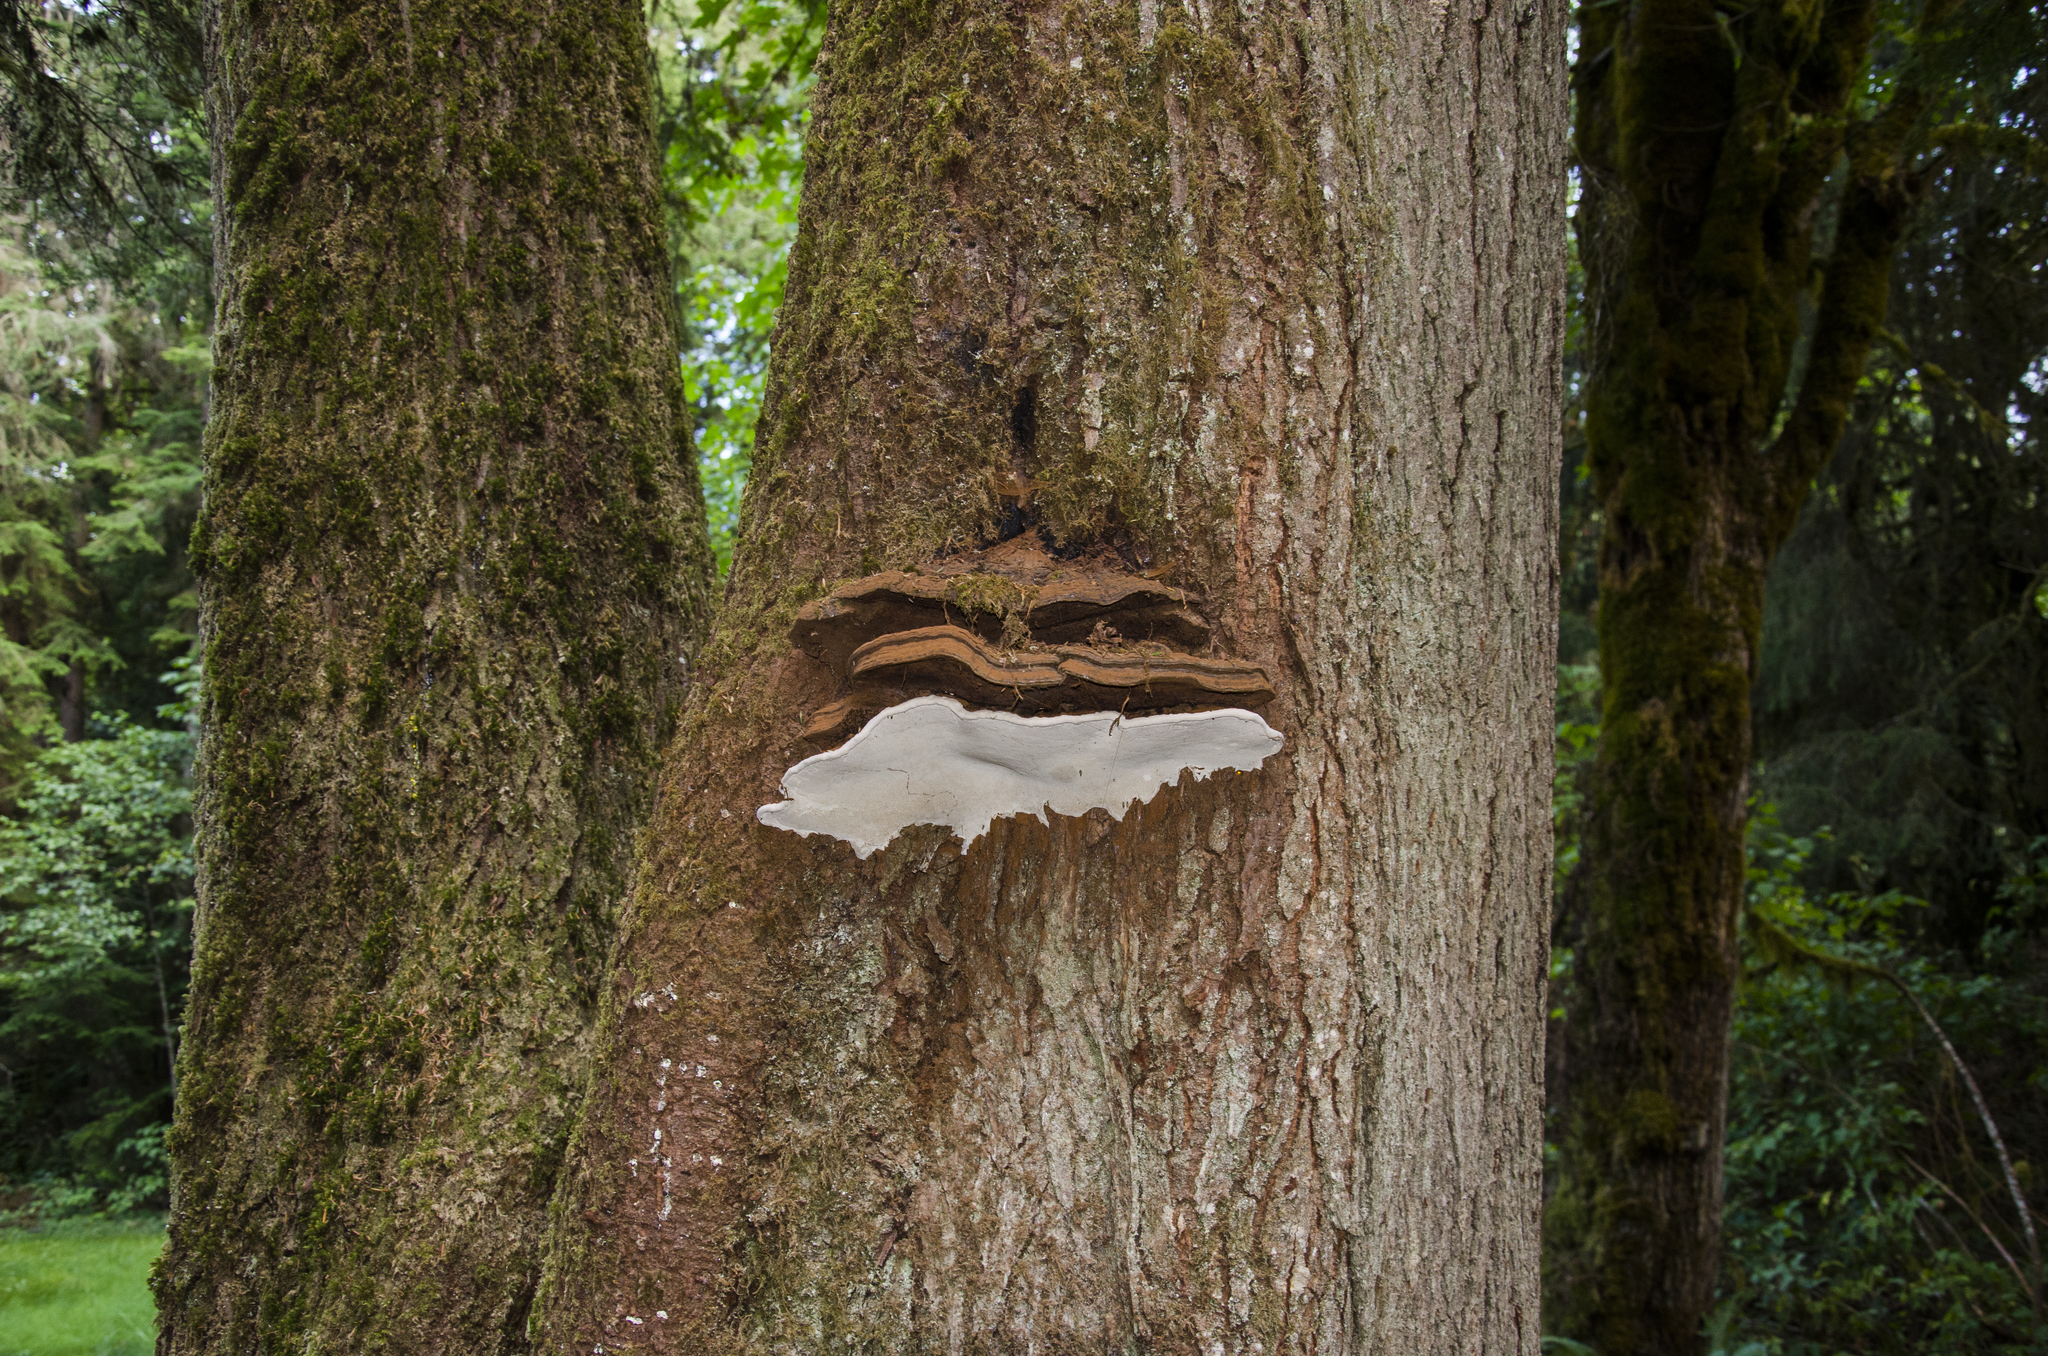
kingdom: Fungi
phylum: Basidiomycota
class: Agaricomycetes
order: Polyporales
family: Polyporaceae
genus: Ganoderma
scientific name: Ganoderma brownii
